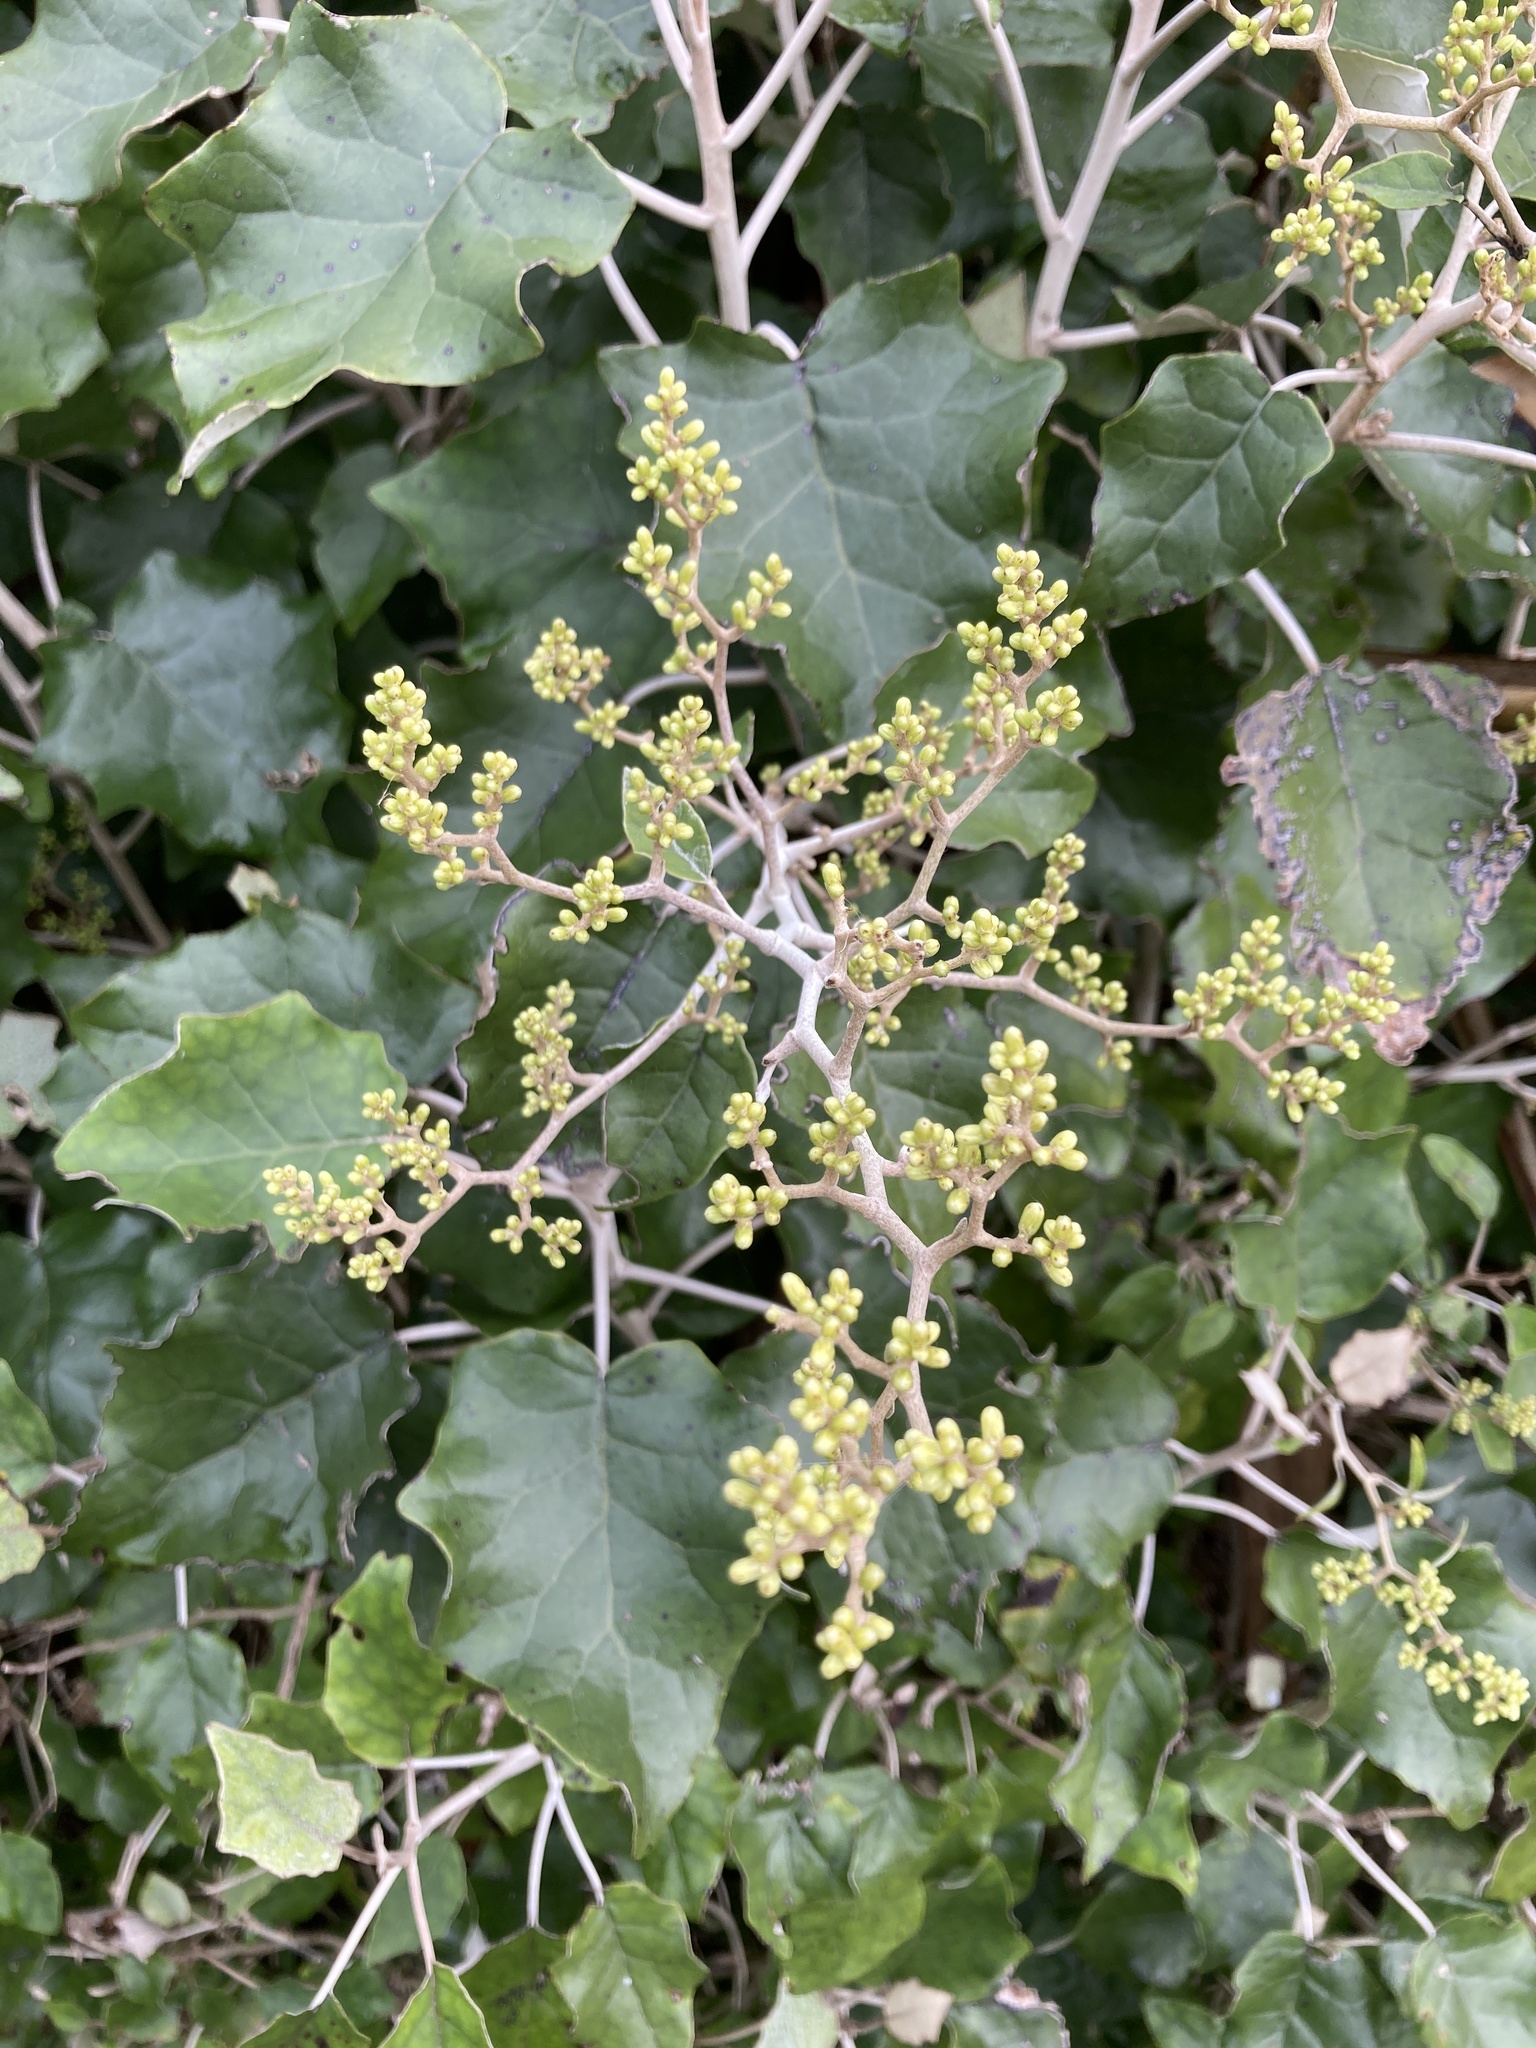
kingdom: Plantae
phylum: Tracheophyta
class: Magnoliopsida
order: Asterales
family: Asteraceae
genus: Brachyglottis
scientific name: Brachyglottis repanda
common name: Hedge ragwort
